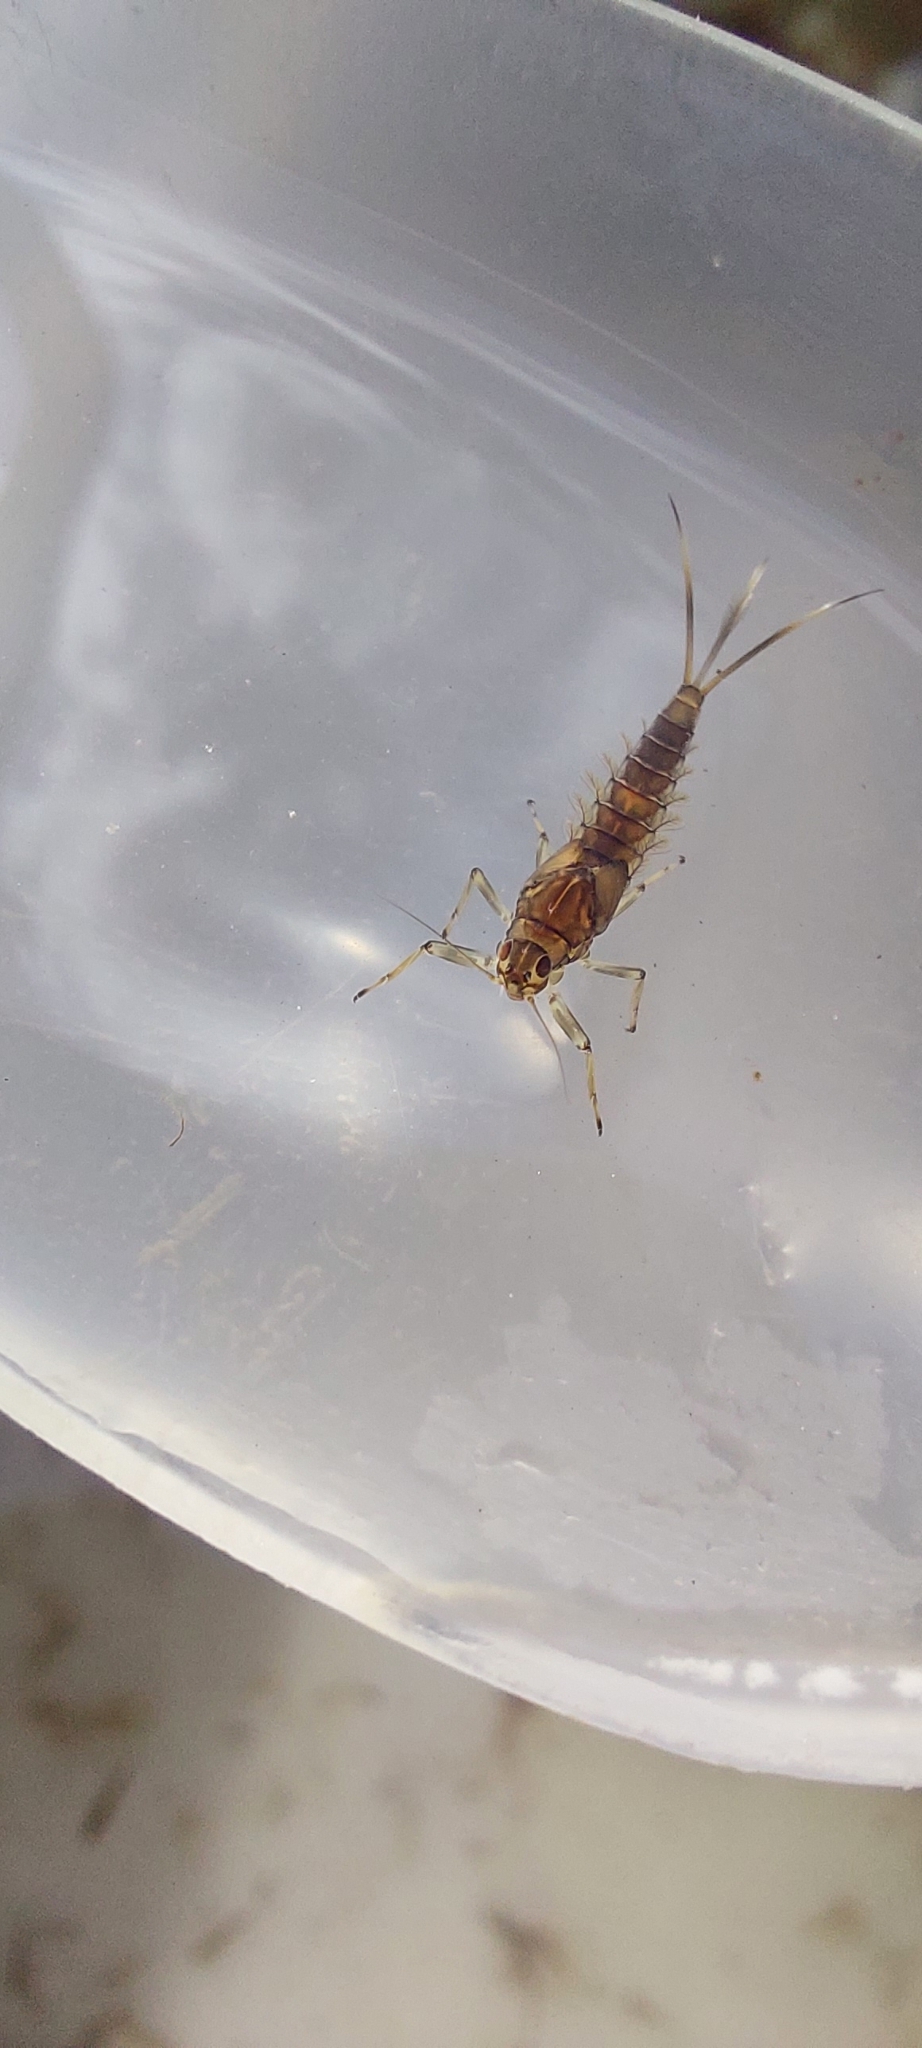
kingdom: Animalia
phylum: Arthropoda
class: Insecta
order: Ephemeroptera
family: Baetidae
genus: Baetis
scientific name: Baetis rhodani
